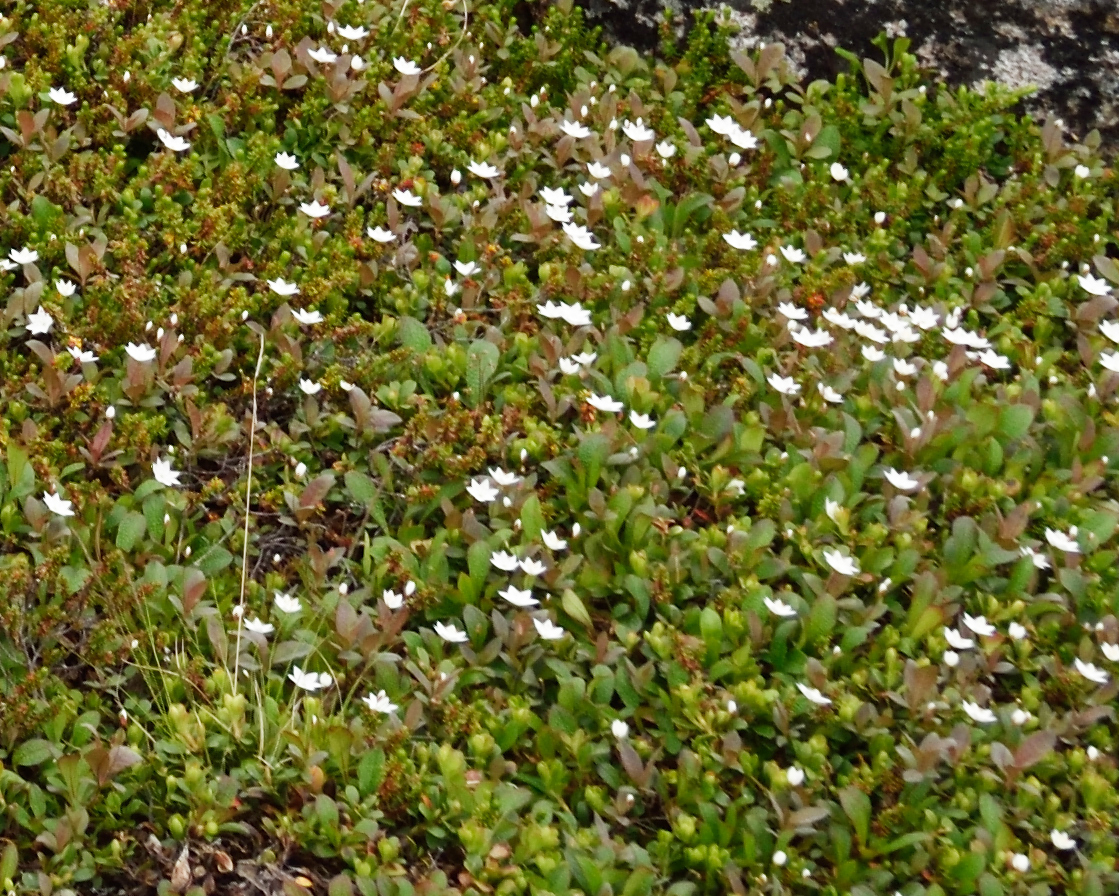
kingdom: Plantae
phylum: Tracheophyta
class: Magnoliopsida
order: Ericales
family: Primulaceae
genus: Lysimachia
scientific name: Lysimachia europaea
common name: Arctic starflower
